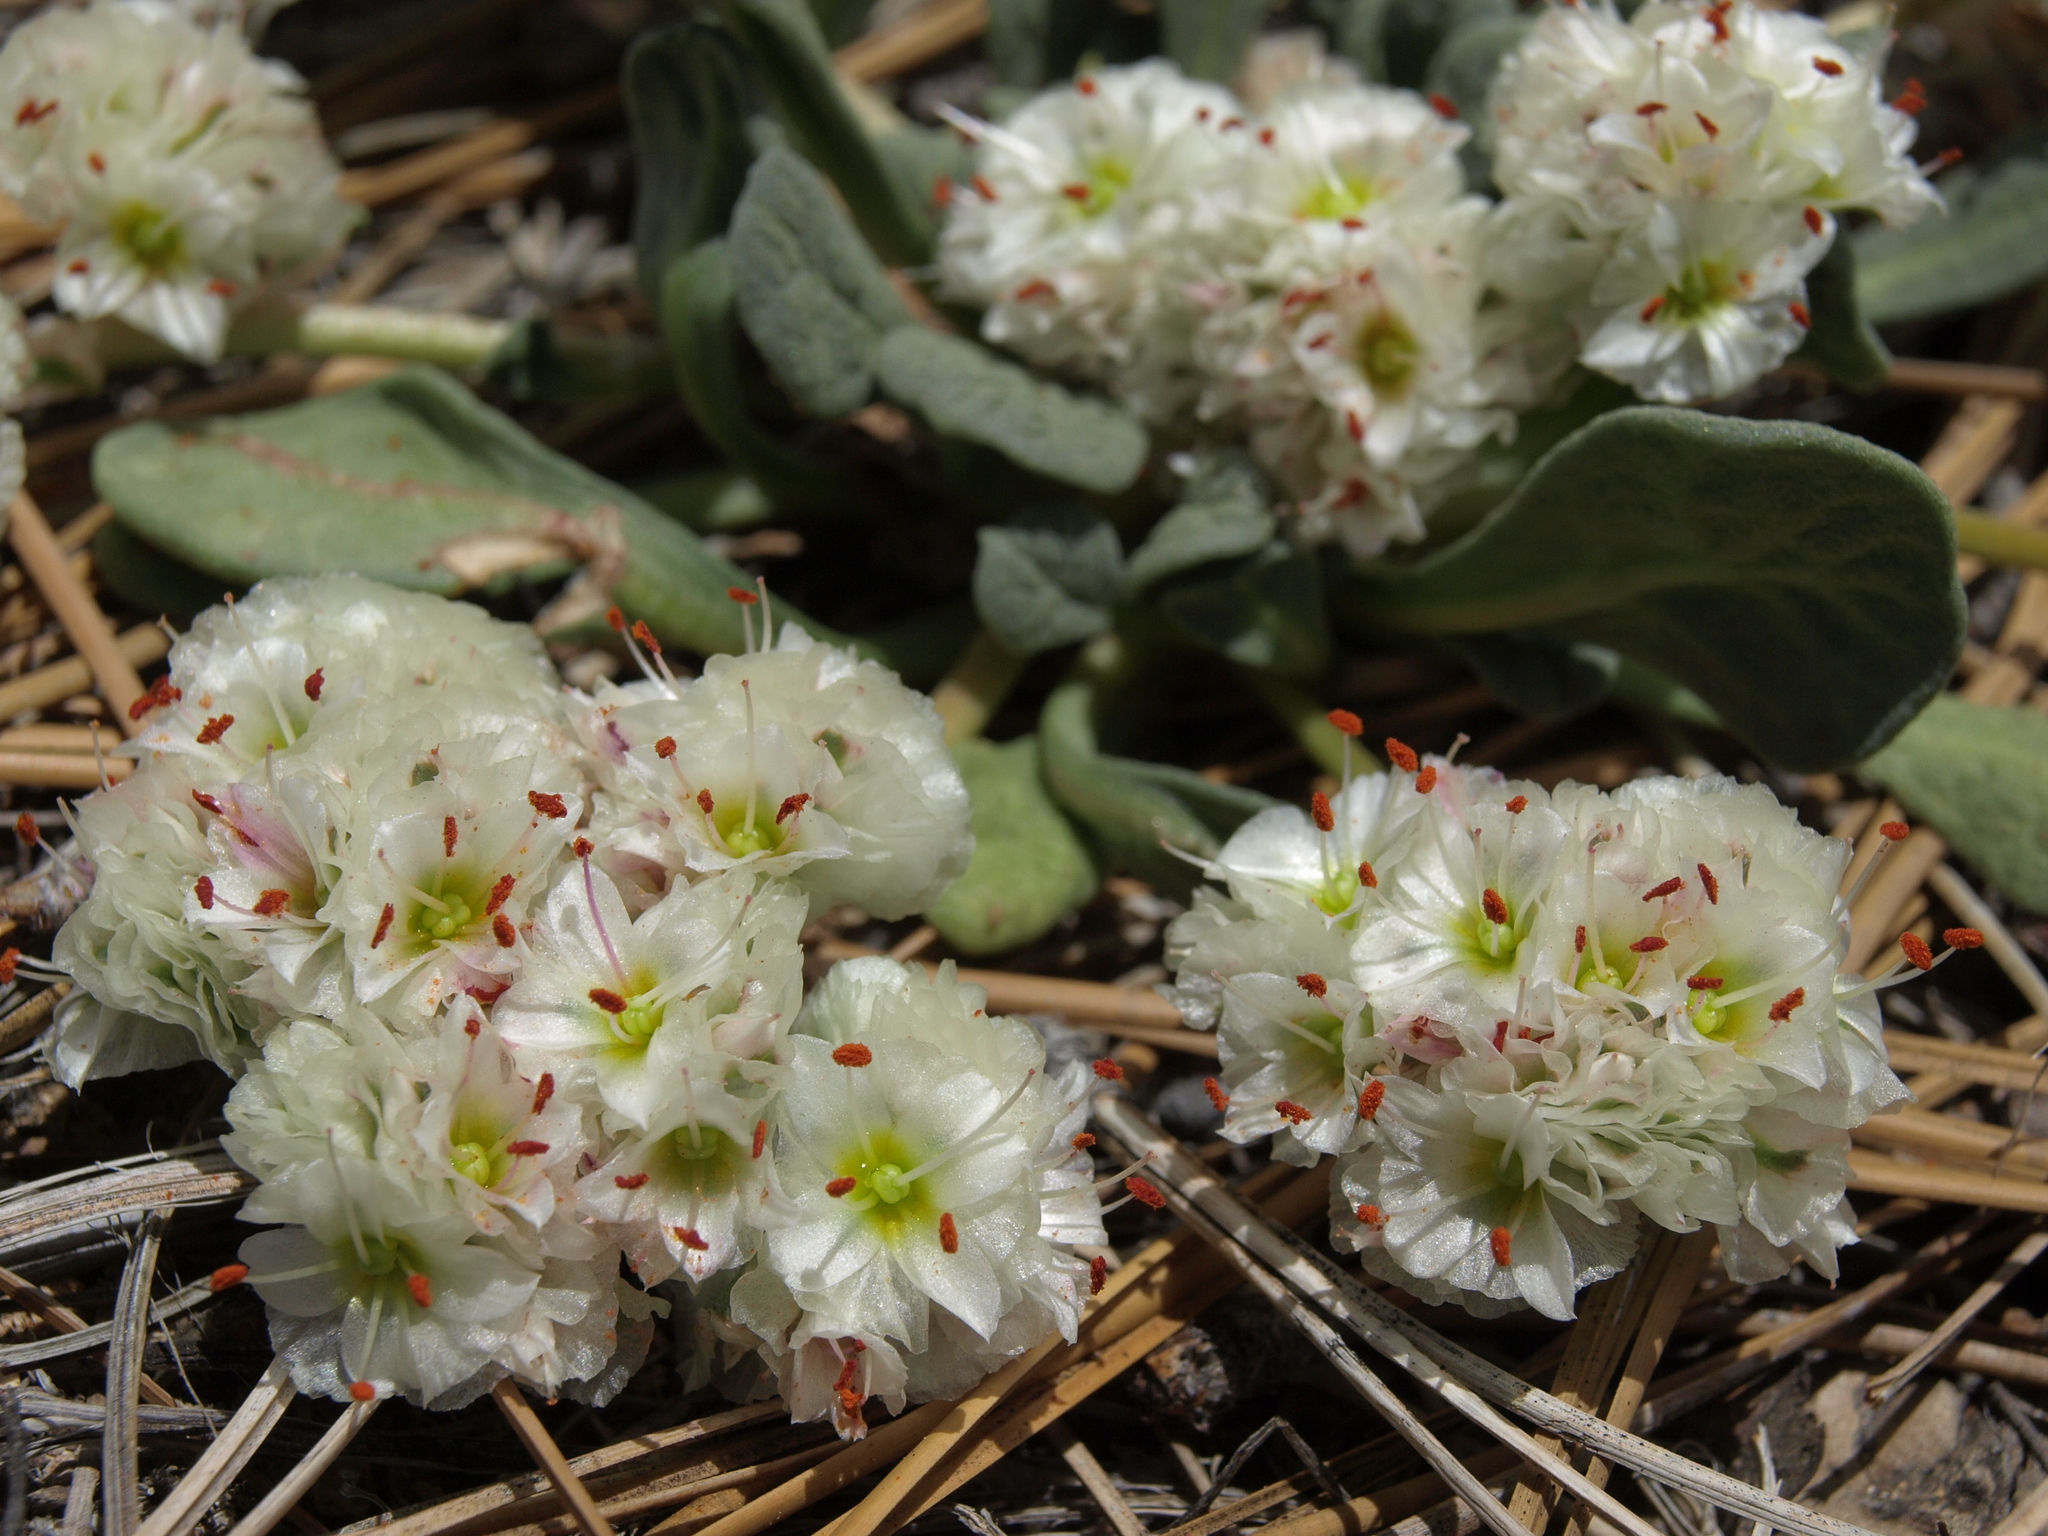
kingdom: Plantae
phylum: Tracheophyta
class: Magnoliopsida
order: Caryophyllales
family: Montiaceae
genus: Calyptridium
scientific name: Calyptridium monospermum
